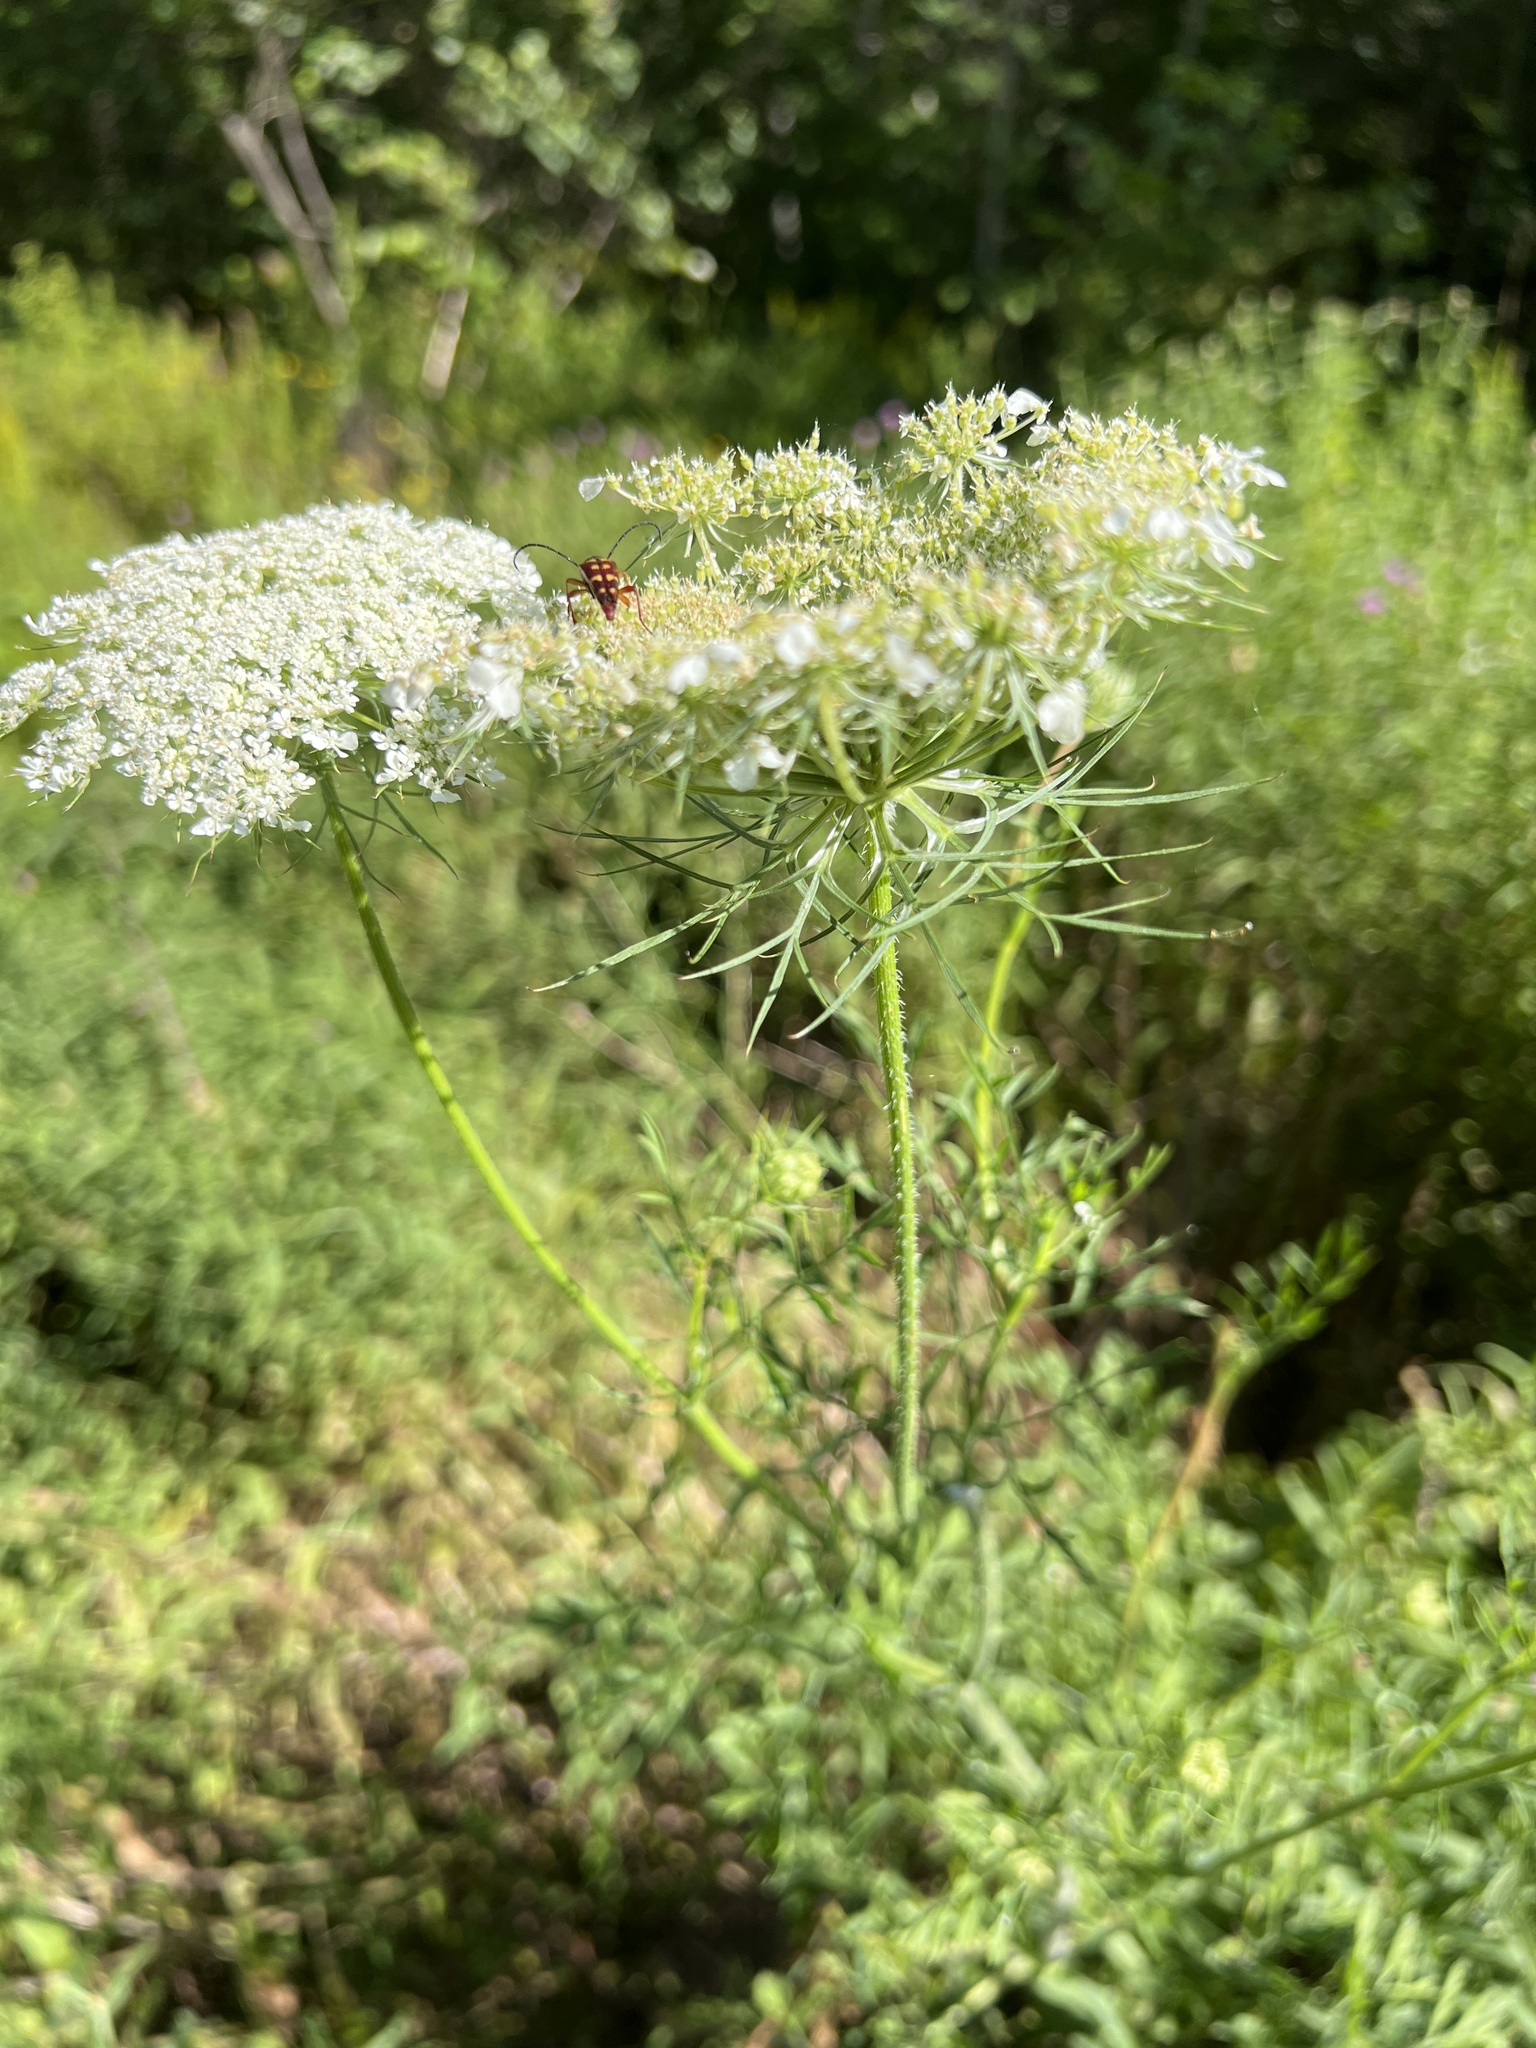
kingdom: Plantae
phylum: Tracheophyta
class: Magnoliopsida
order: Apiales
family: Apiaceae
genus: Daucus
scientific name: Daucus carota
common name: Wild carrot
